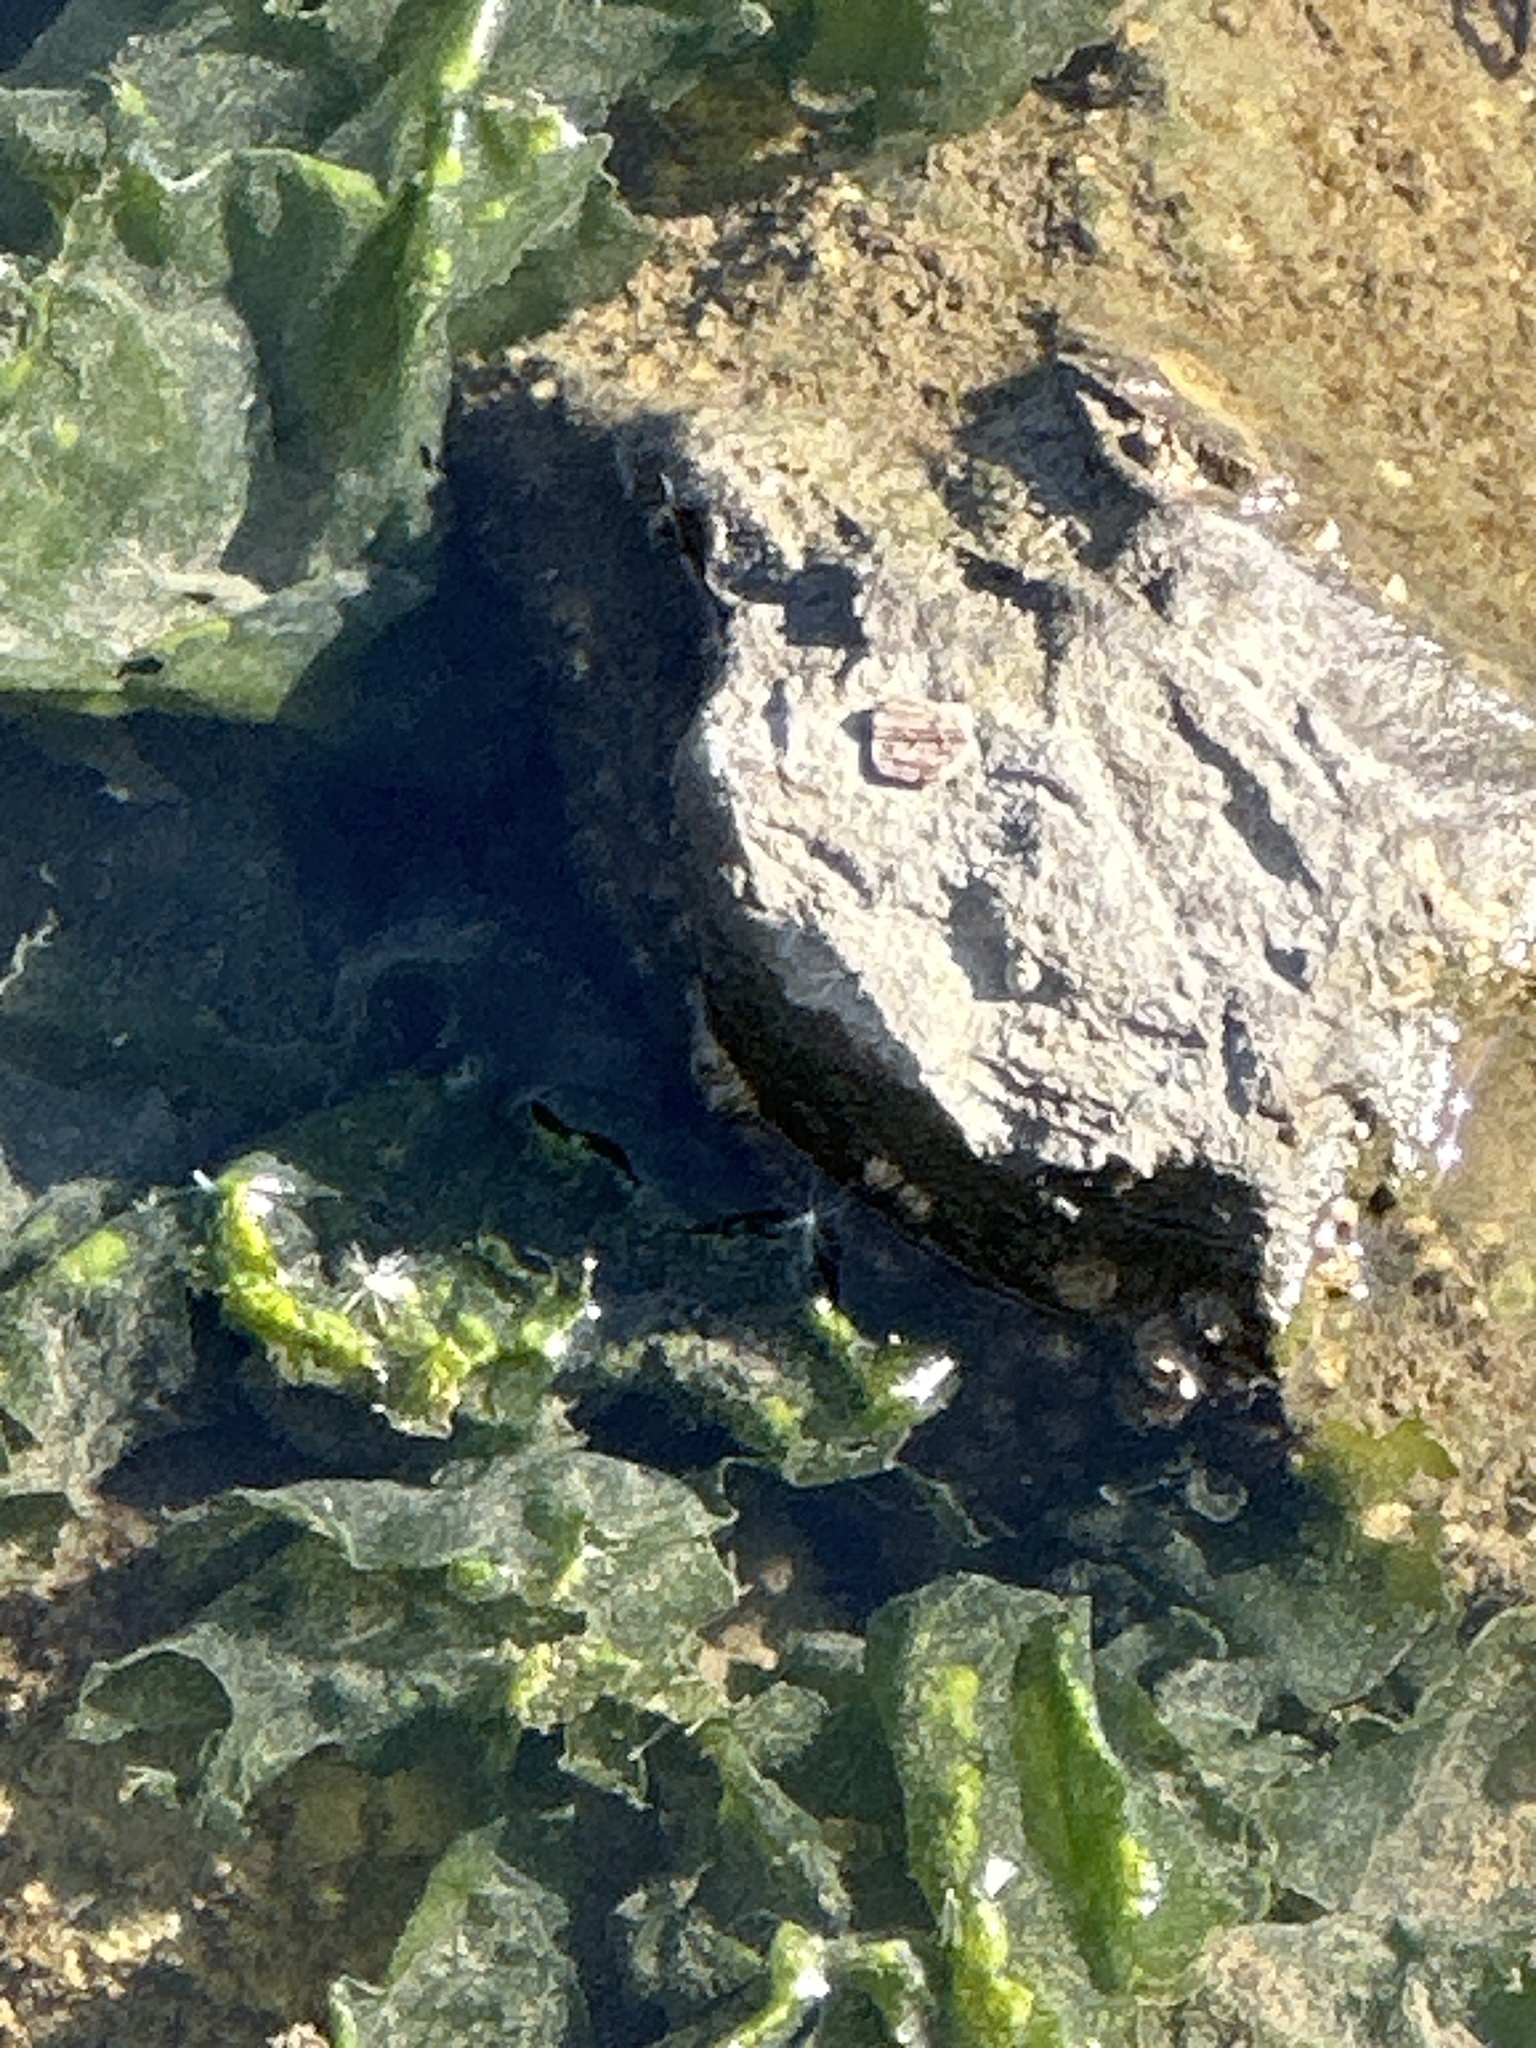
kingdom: Animalia
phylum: Arthropoda
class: Malacostraca
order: Decapoda
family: Grapsidae
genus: Pachygrapsus
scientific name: Pachygrapsus crassipes
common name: Striped shore crab
